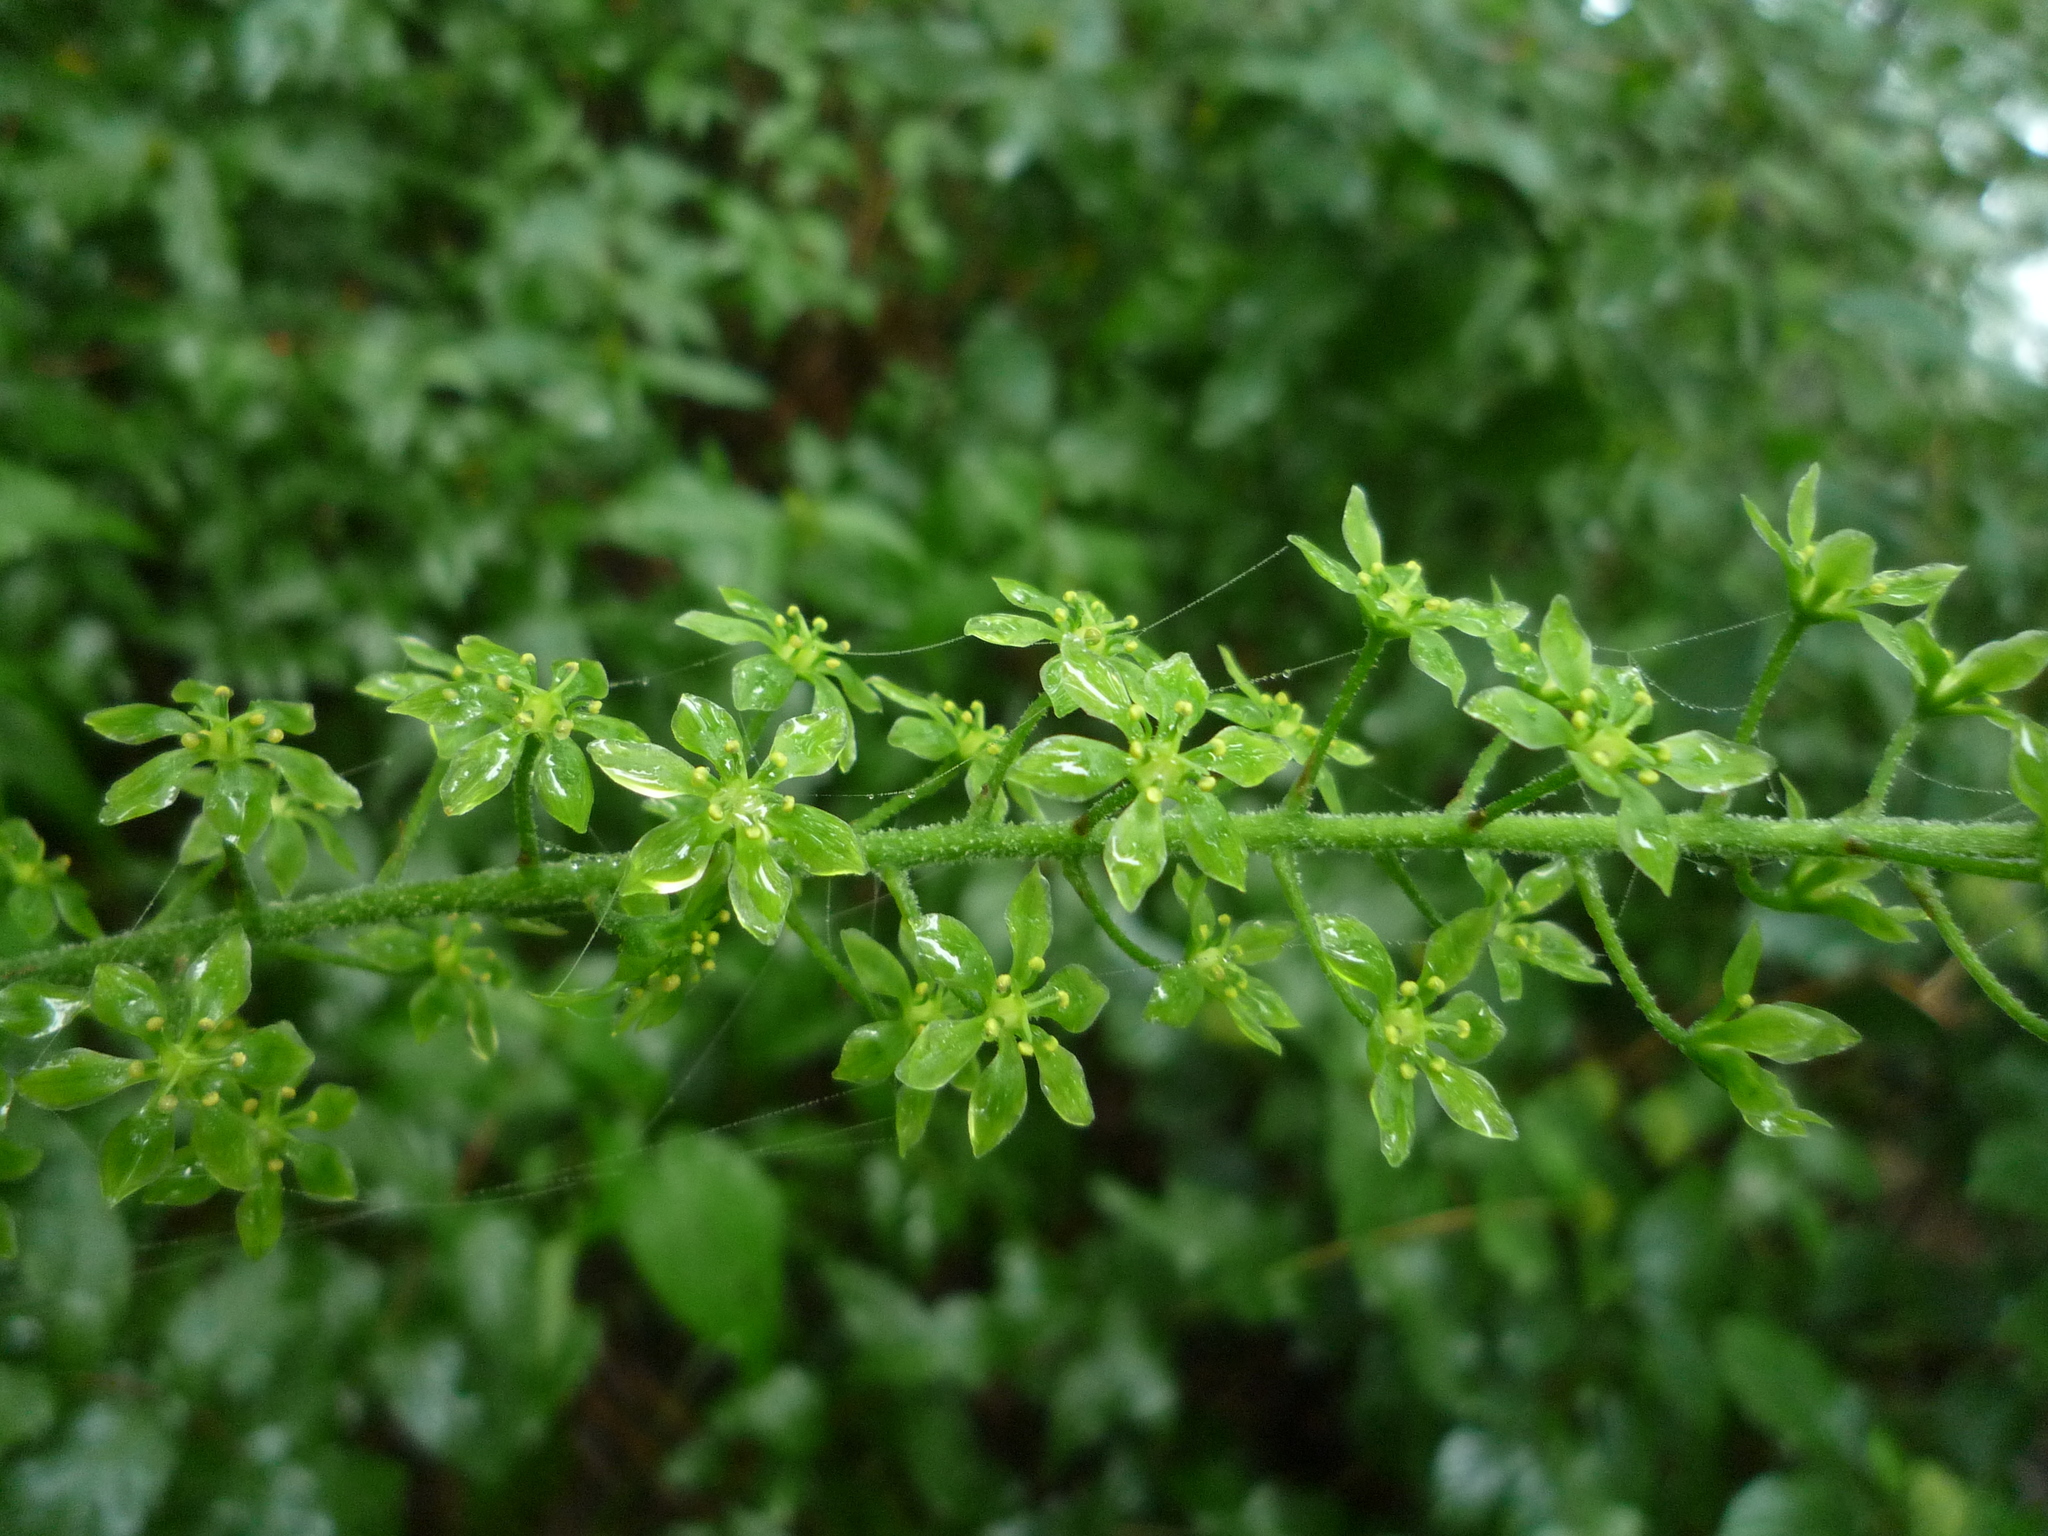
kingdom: Plantae
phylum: Tracheophyta
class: Liliopsida
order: Liliales
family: Melanthiaceae
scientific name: Melanthiaceae
